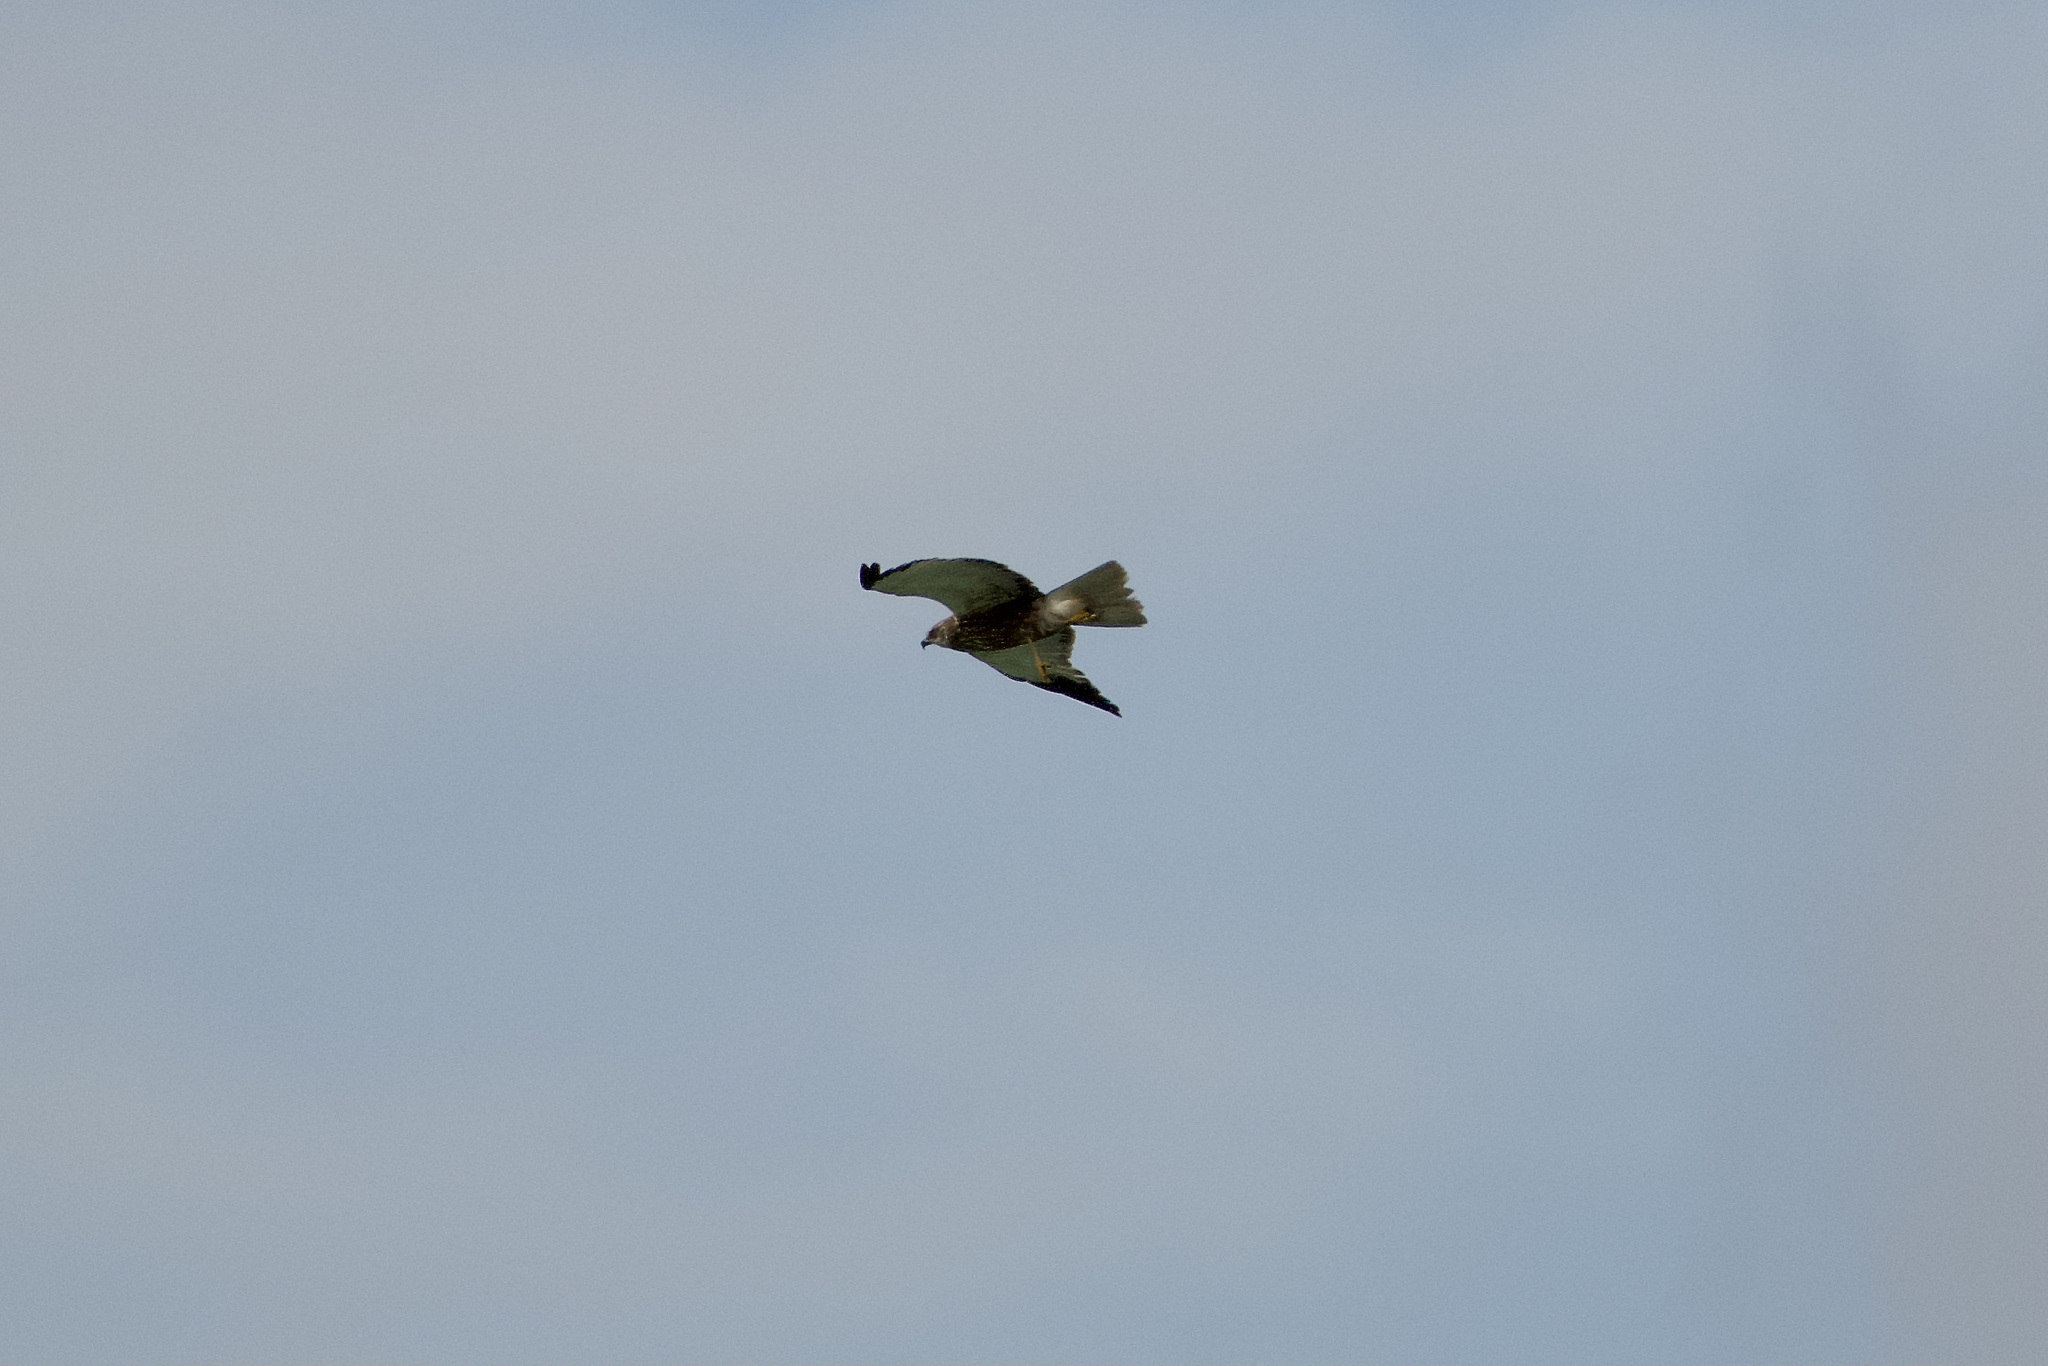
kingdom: Animalia
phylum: Chordata
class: Aves
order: Accipitriformes
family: Accipitridae
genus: Circus
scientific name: Circus aeruginosus
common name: Western marsh harrier
